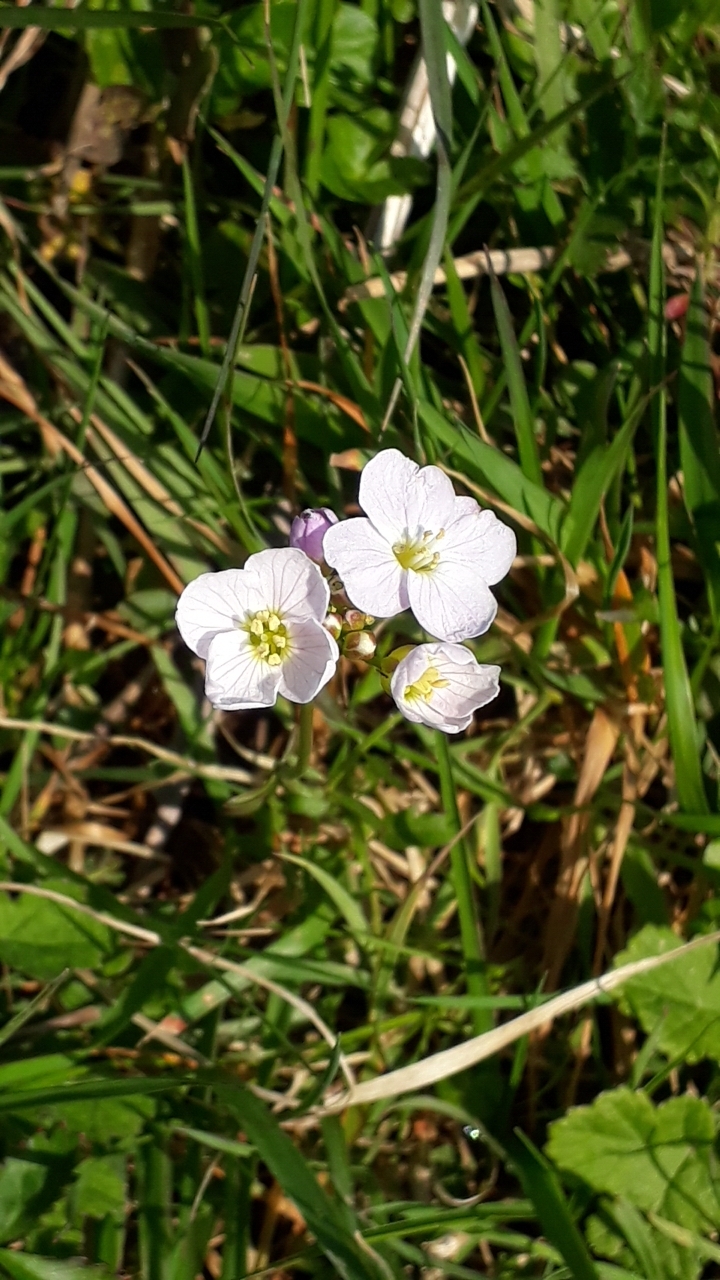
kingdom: Plantae
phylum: Tracheophyta
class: Magnoliopsida
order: Brassicales
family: Brassicaceae
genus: Cardamine
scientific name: Cardamine pratensis
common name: Cuckoo flower
